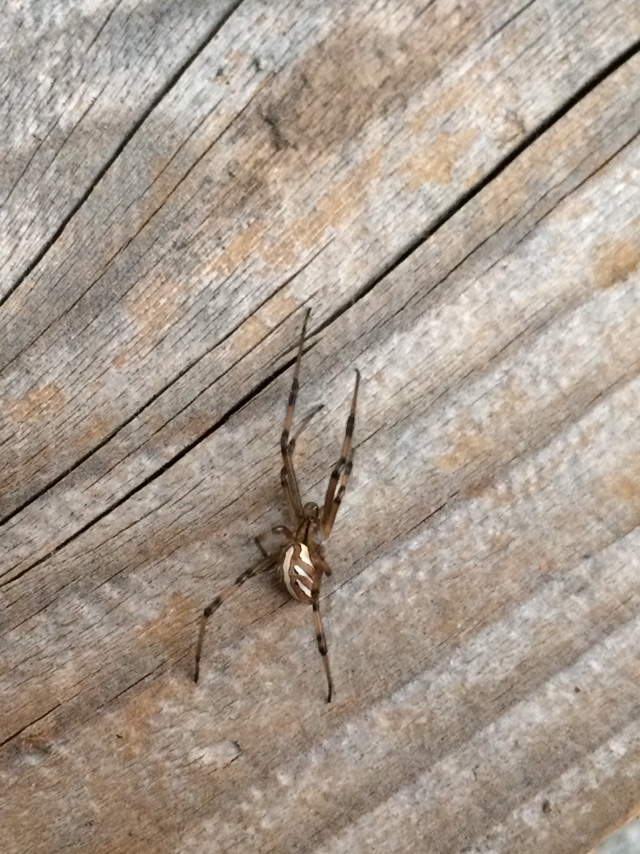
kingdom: Animalia
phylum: Arthropoda
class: Arachnida
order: Araneae
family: Theridiidae
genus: Latrodectus
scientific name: Latrodectus hesperus
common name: Western black widow
